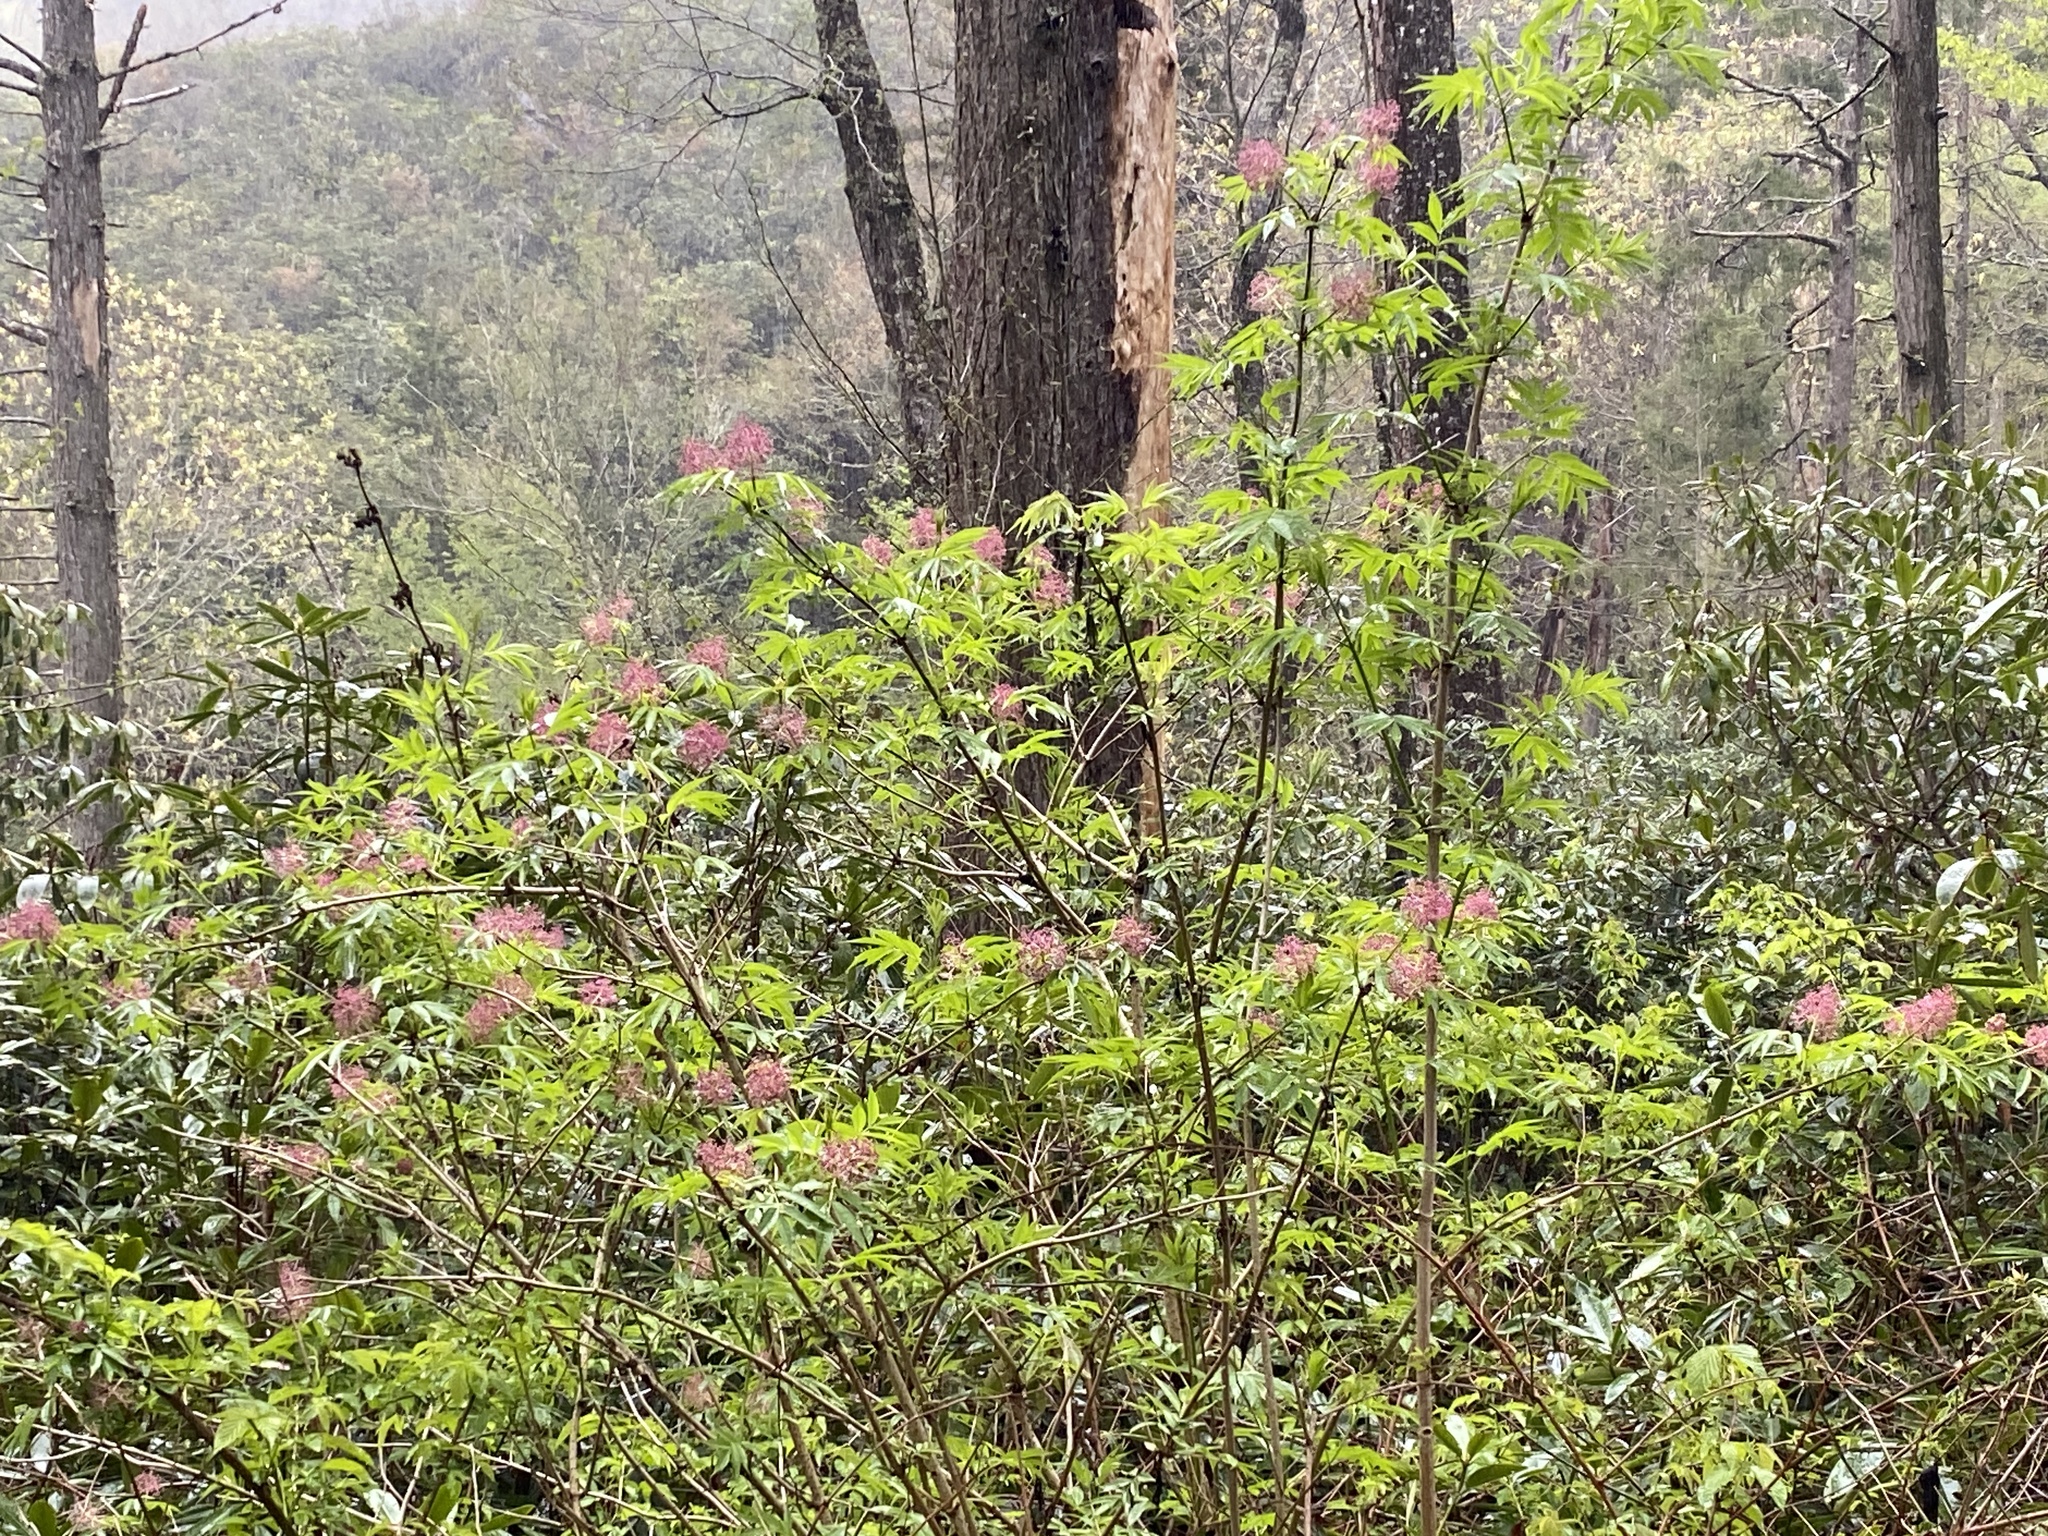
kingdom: Plantae
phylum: Tracheophyta
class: Magnoliopsida
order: Dipsacales
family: Viburnaceae
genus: Sambucus
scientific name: Sambucus racemosa
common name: Red-berried elder
